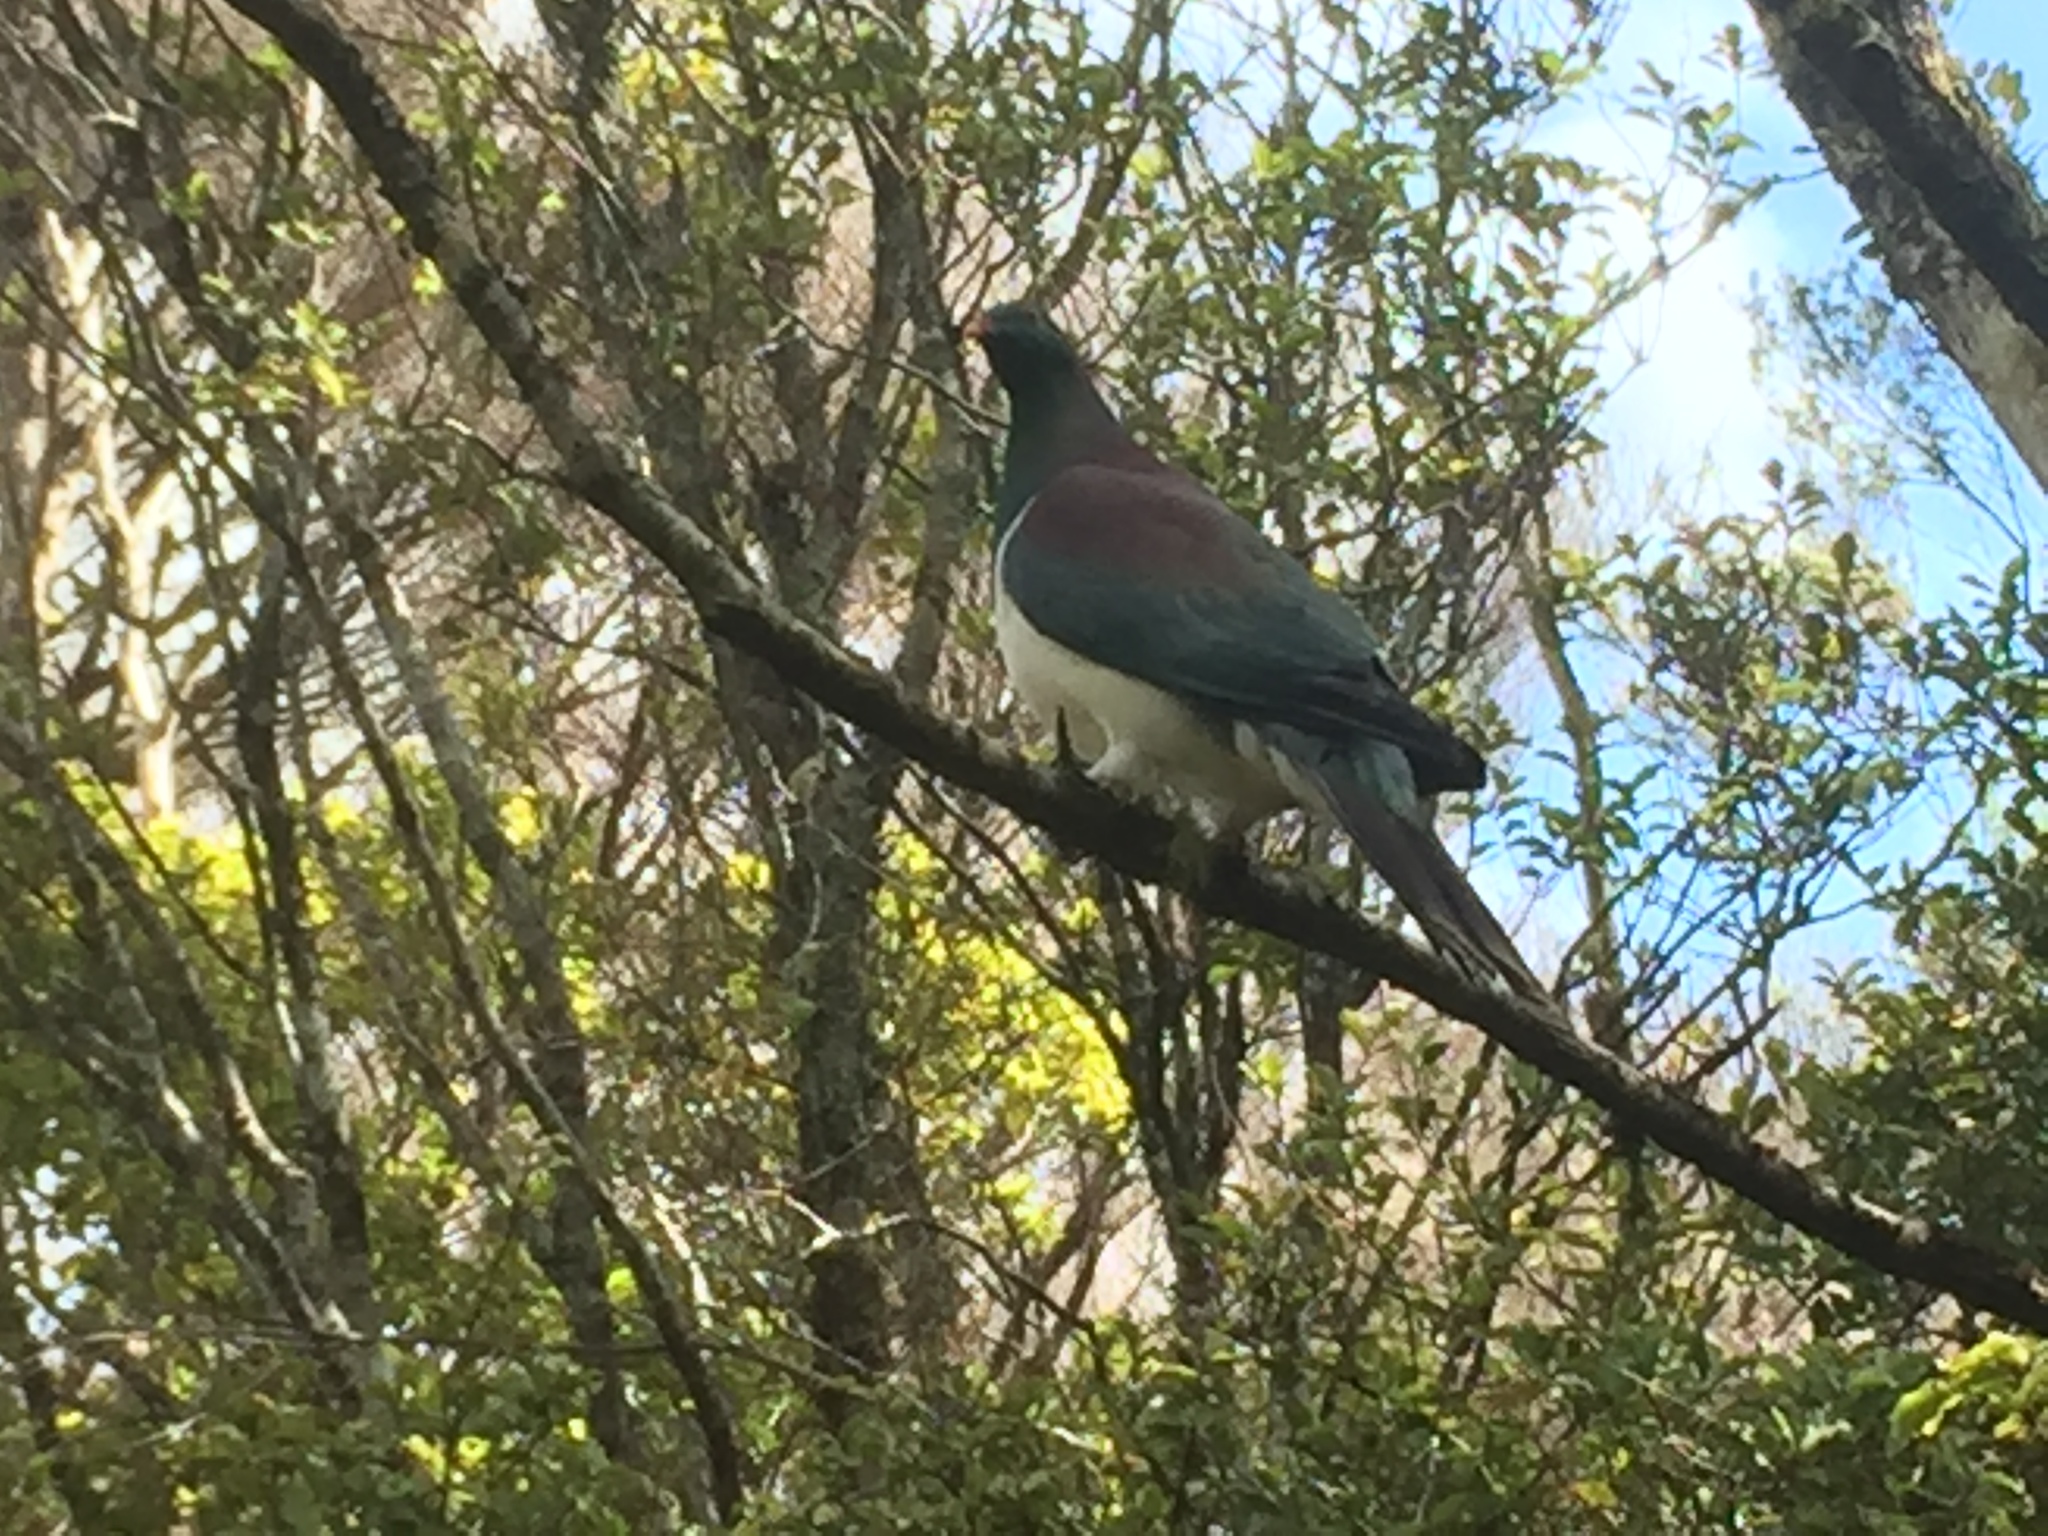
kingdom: Animalia
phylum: Chordata
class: Aves
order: Columbiformes
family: Columbidae
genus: Hemiphaga
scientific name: Hemiphaga novaeseelandiae
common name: New zealand pigeon
